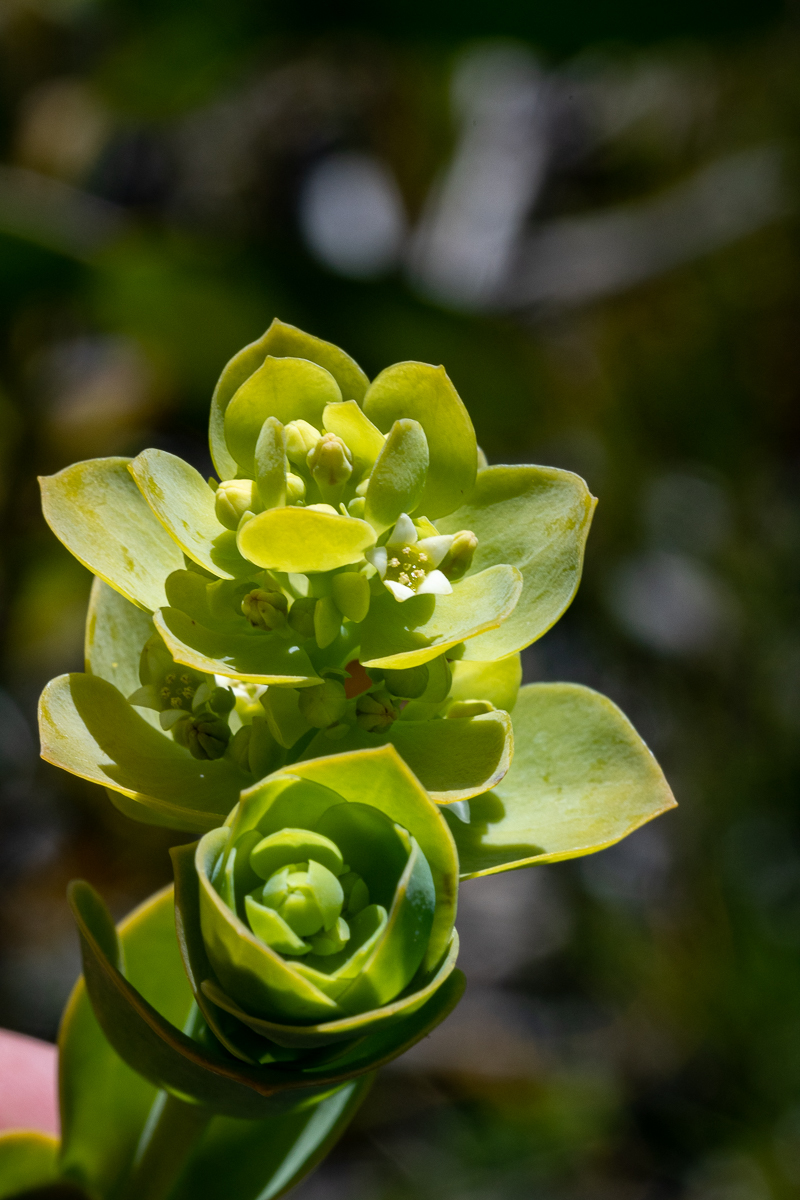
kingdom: Plantae
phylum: Tracheophyta
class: Magnoliopsida
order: Santalales
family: Thesiaceae
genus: Thesium
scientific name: Thesium euphorbioides
